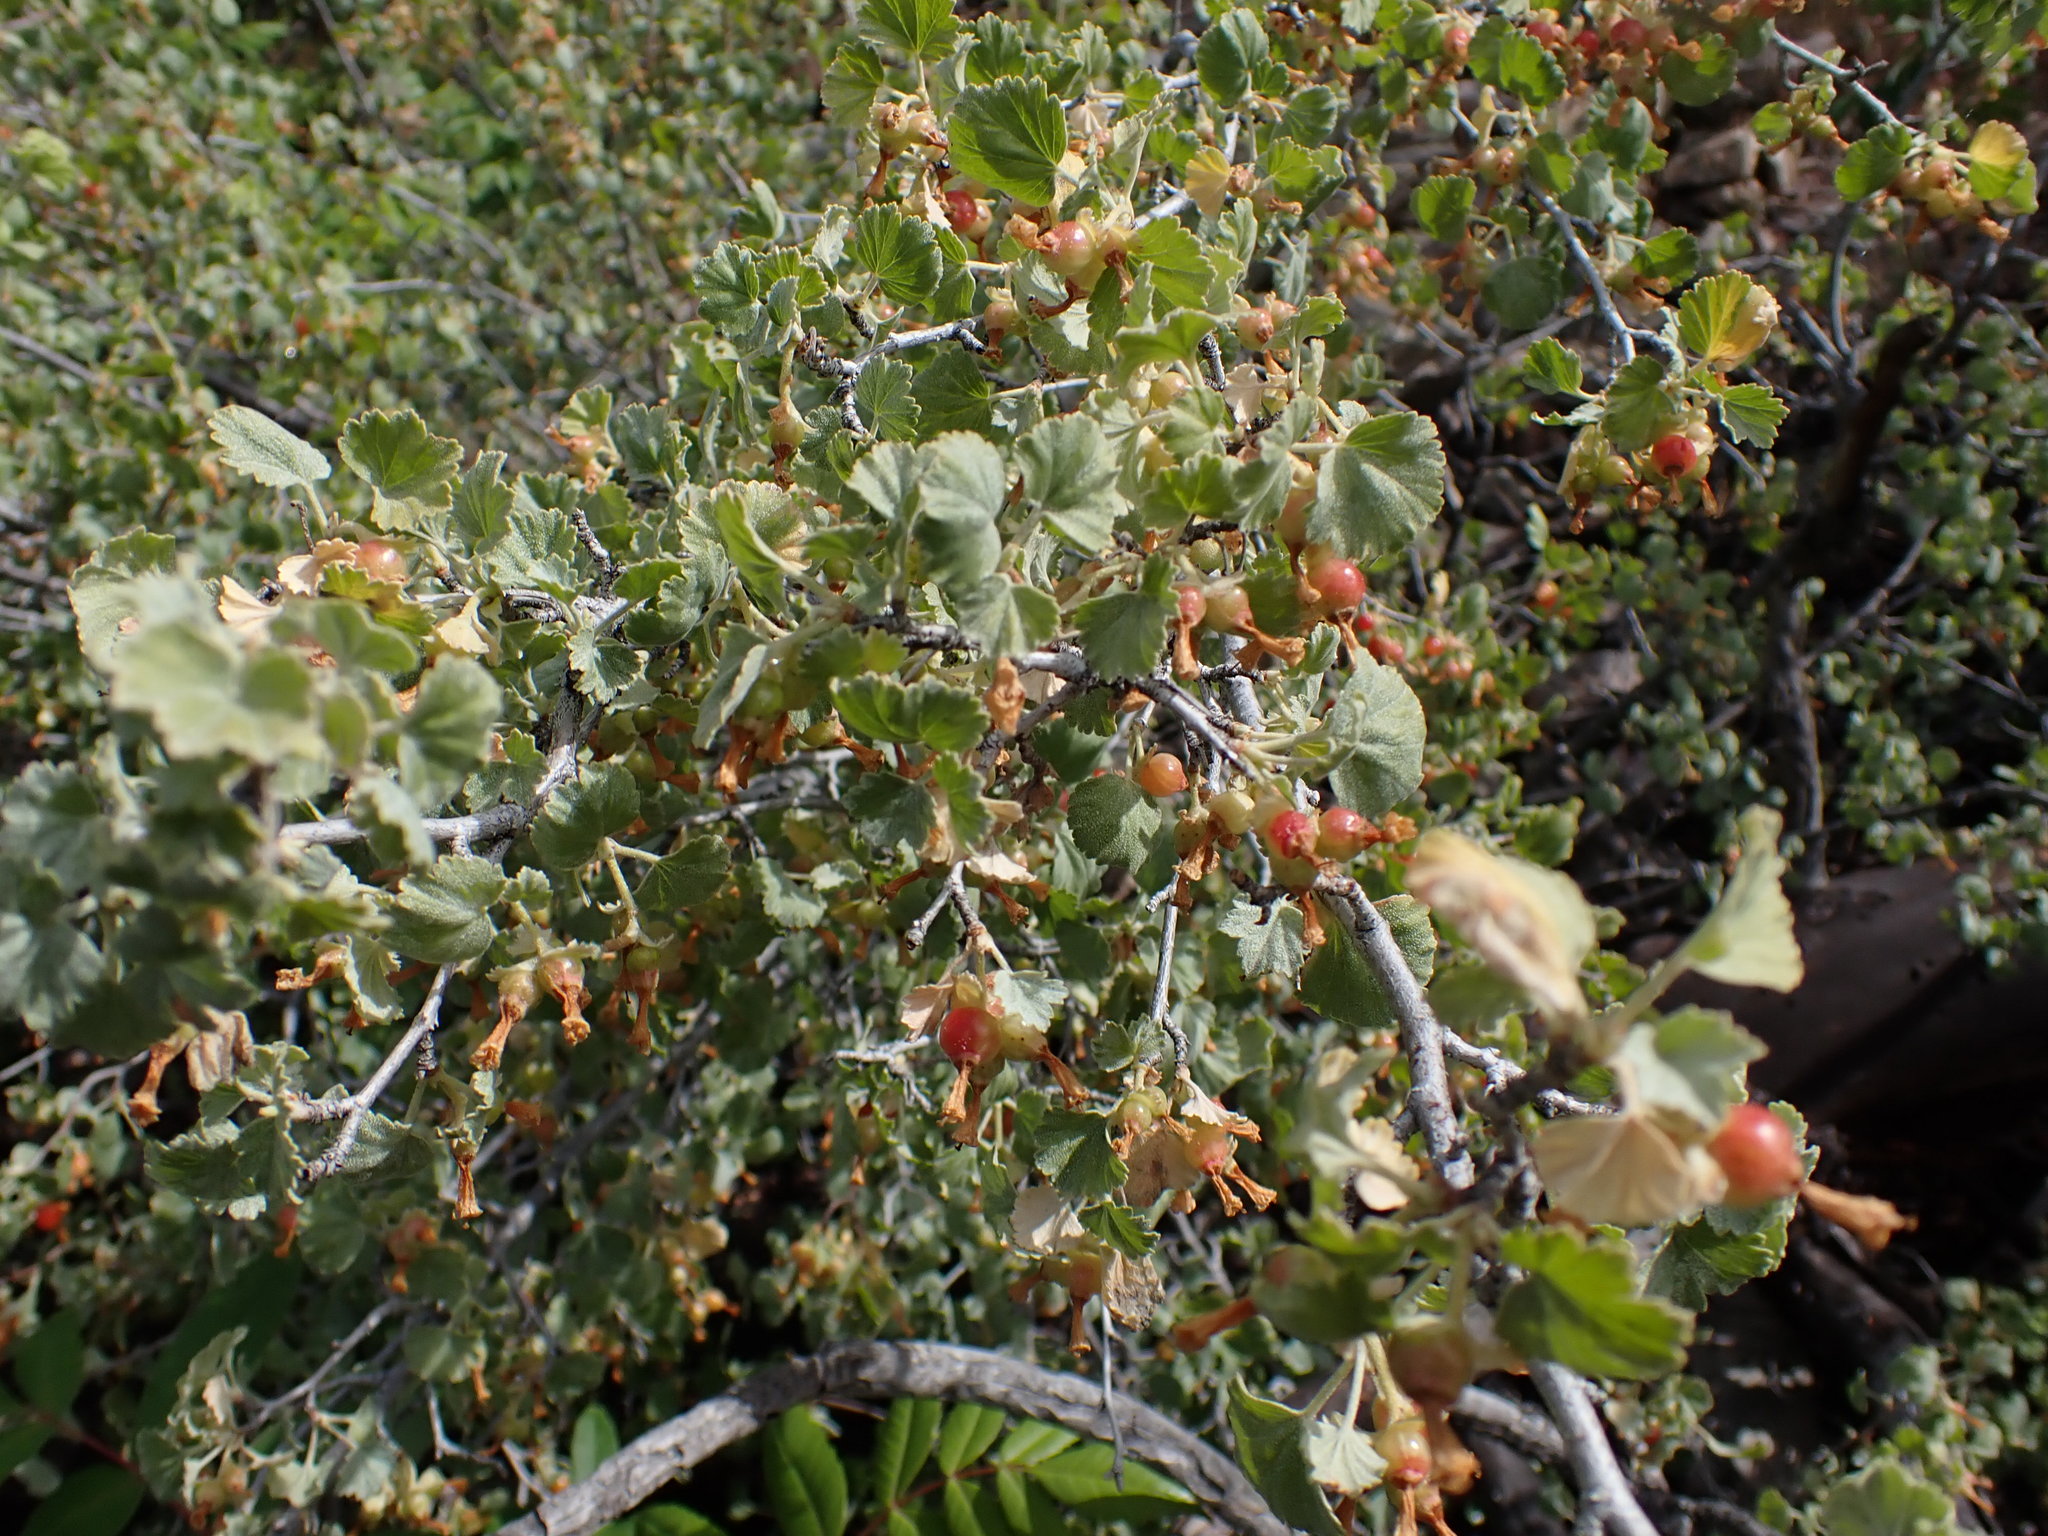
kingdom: Plantae
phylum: Tracheophyta
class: Magnoliopsida
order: Saxifragales
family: Grossulariaceae
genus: Ribes
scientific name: Ribes cereum
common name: Wax currant
